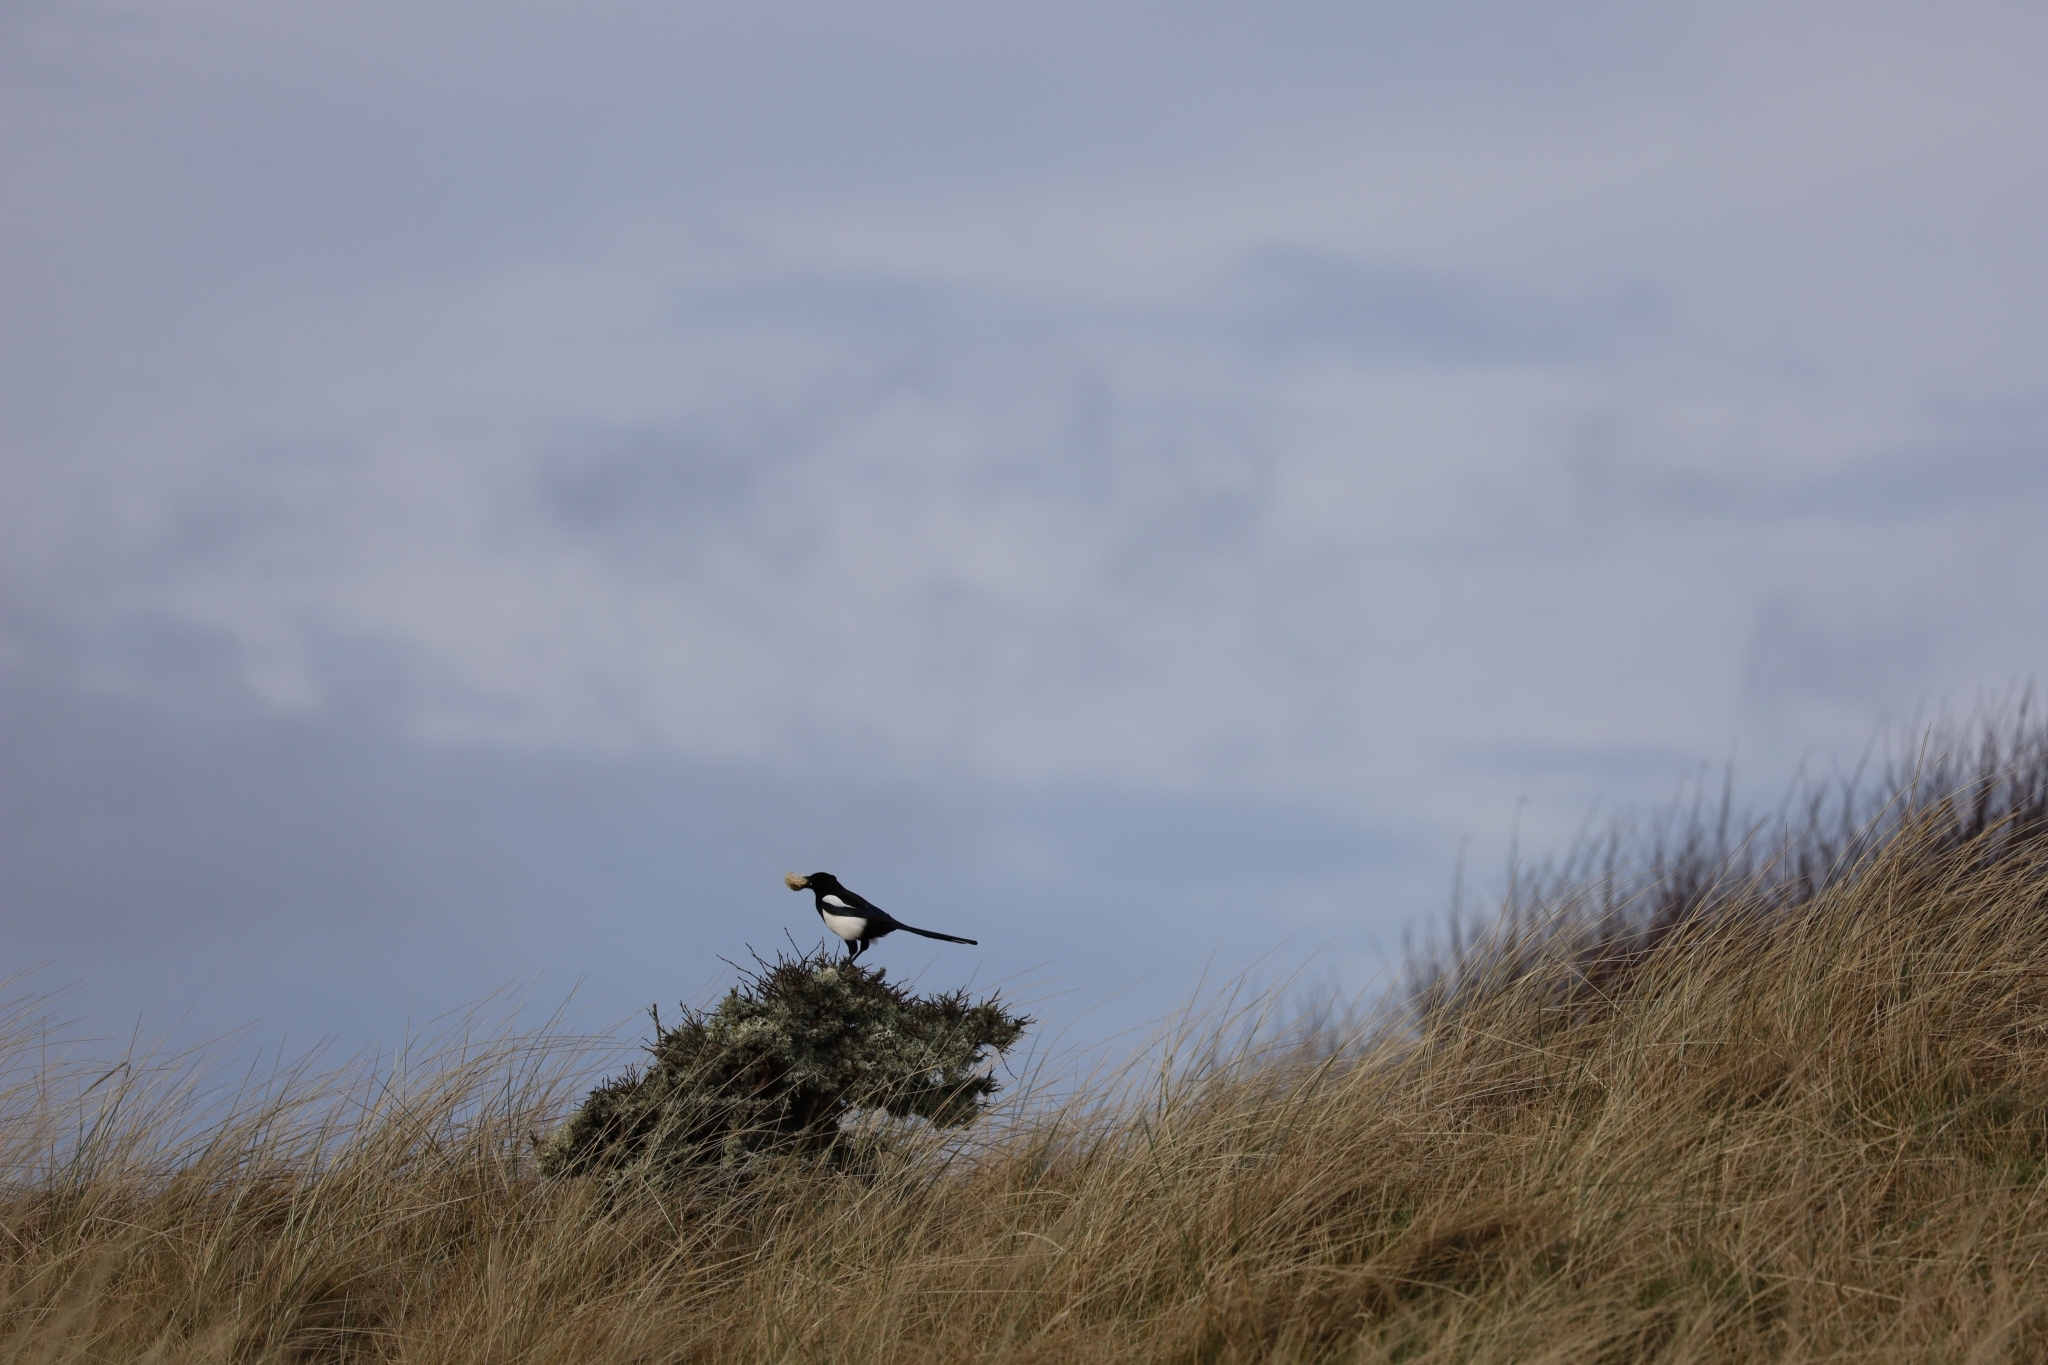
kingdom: Animalia
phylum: Chordata
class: Aves
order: Passeriformes
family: Corvidae
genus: Pica
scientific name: Pica pica
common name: Eurasian magpie
